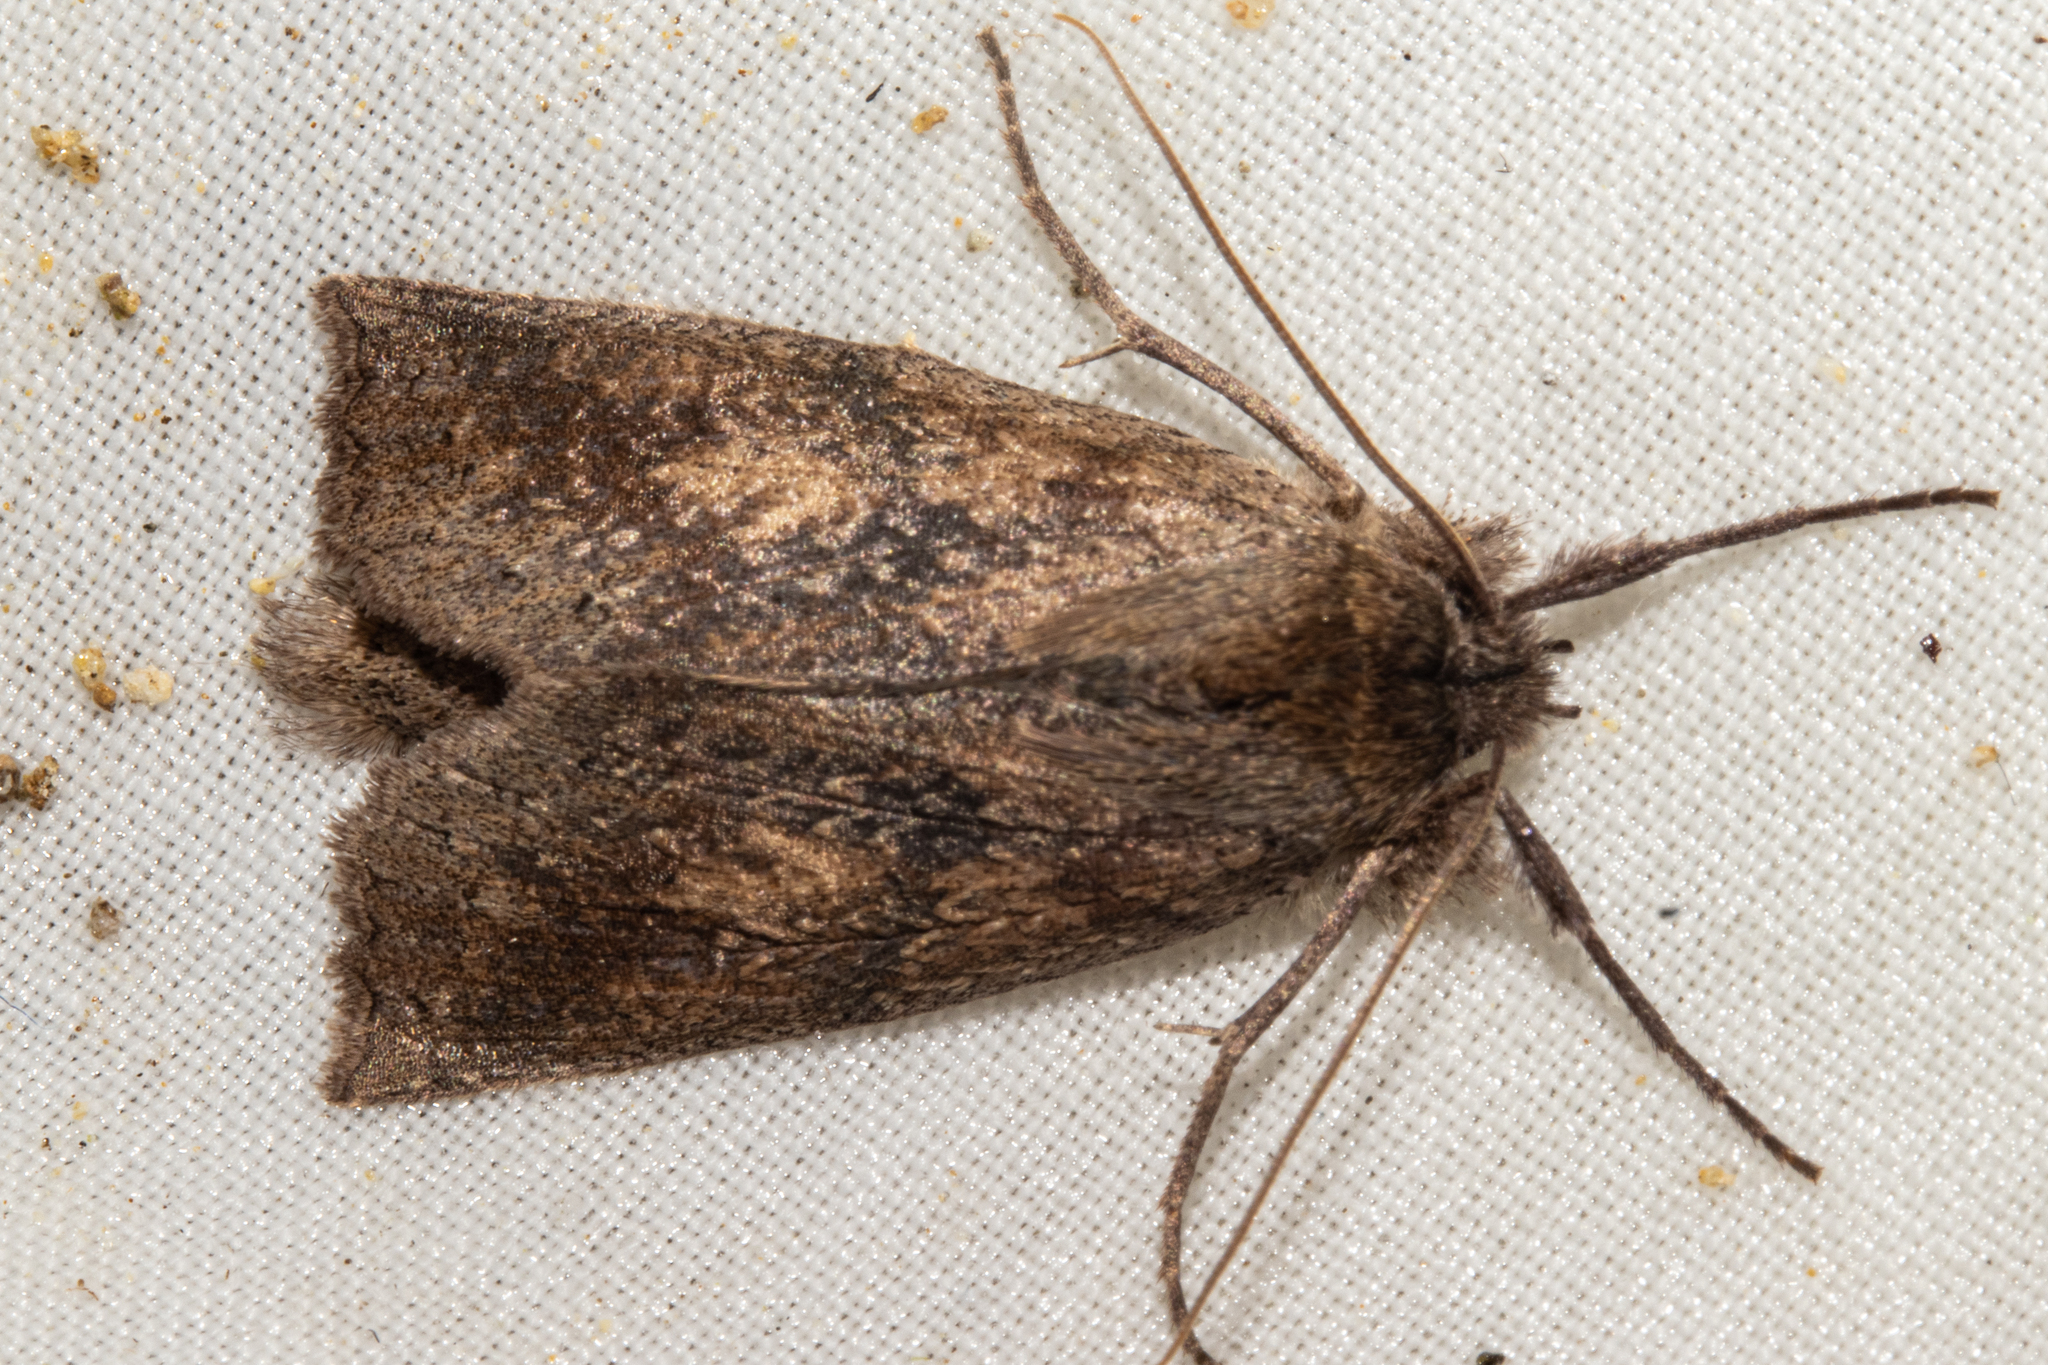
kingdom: Animalia
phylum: Arthropoda
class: Insecta
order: Lepidoptera
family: Geometridae
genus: Declana
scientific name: Declana leptomera
